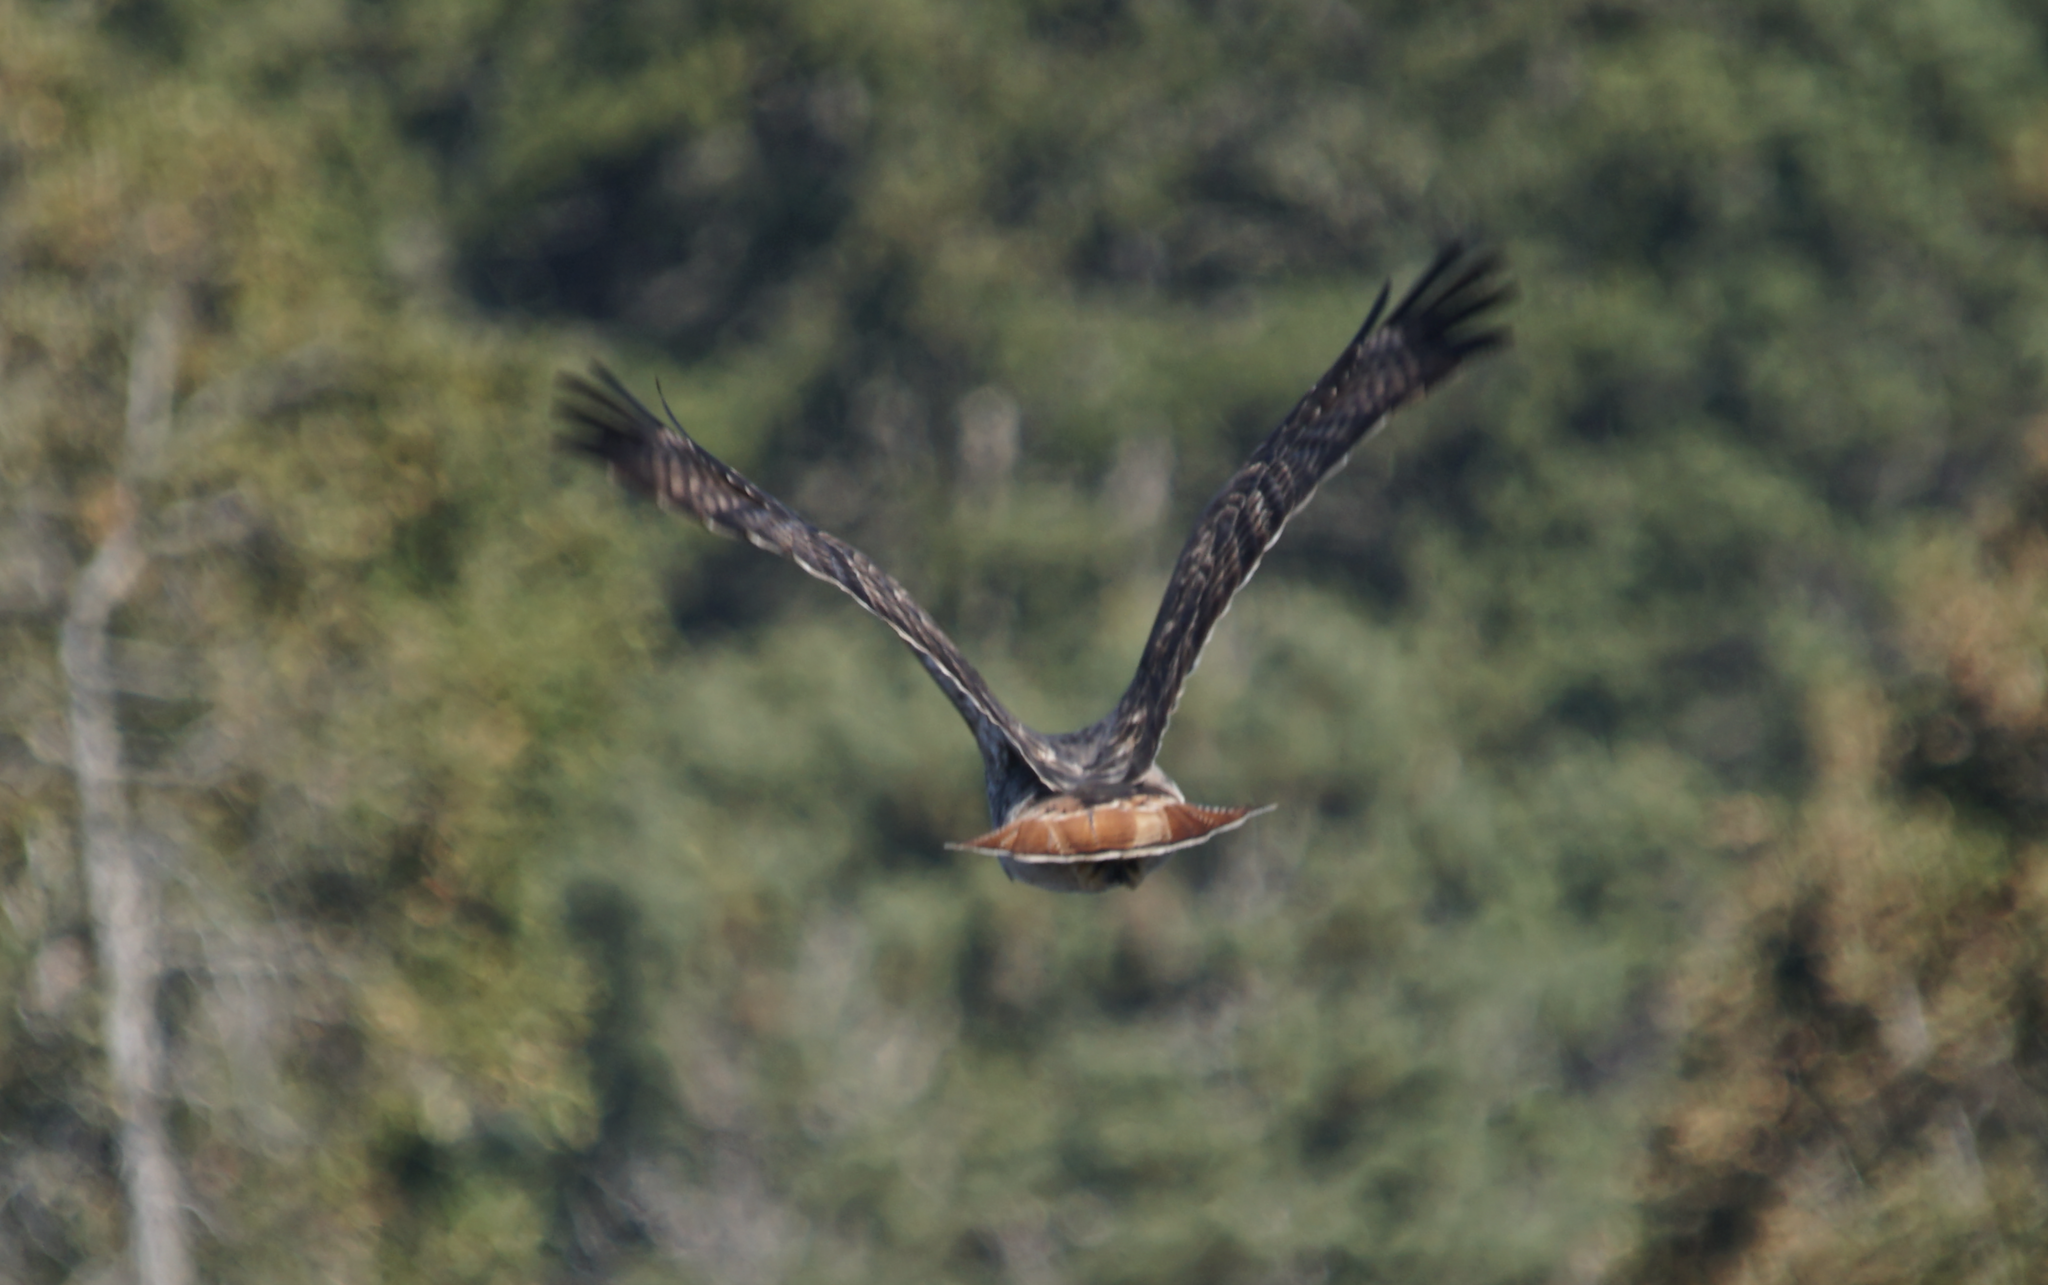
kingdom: Animalia
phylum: Chordata
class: Aves
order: Accipitriformes
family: Accipitridae
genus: Buteo
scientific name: Buteo jamaicensis
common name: Red-tailed hawk
